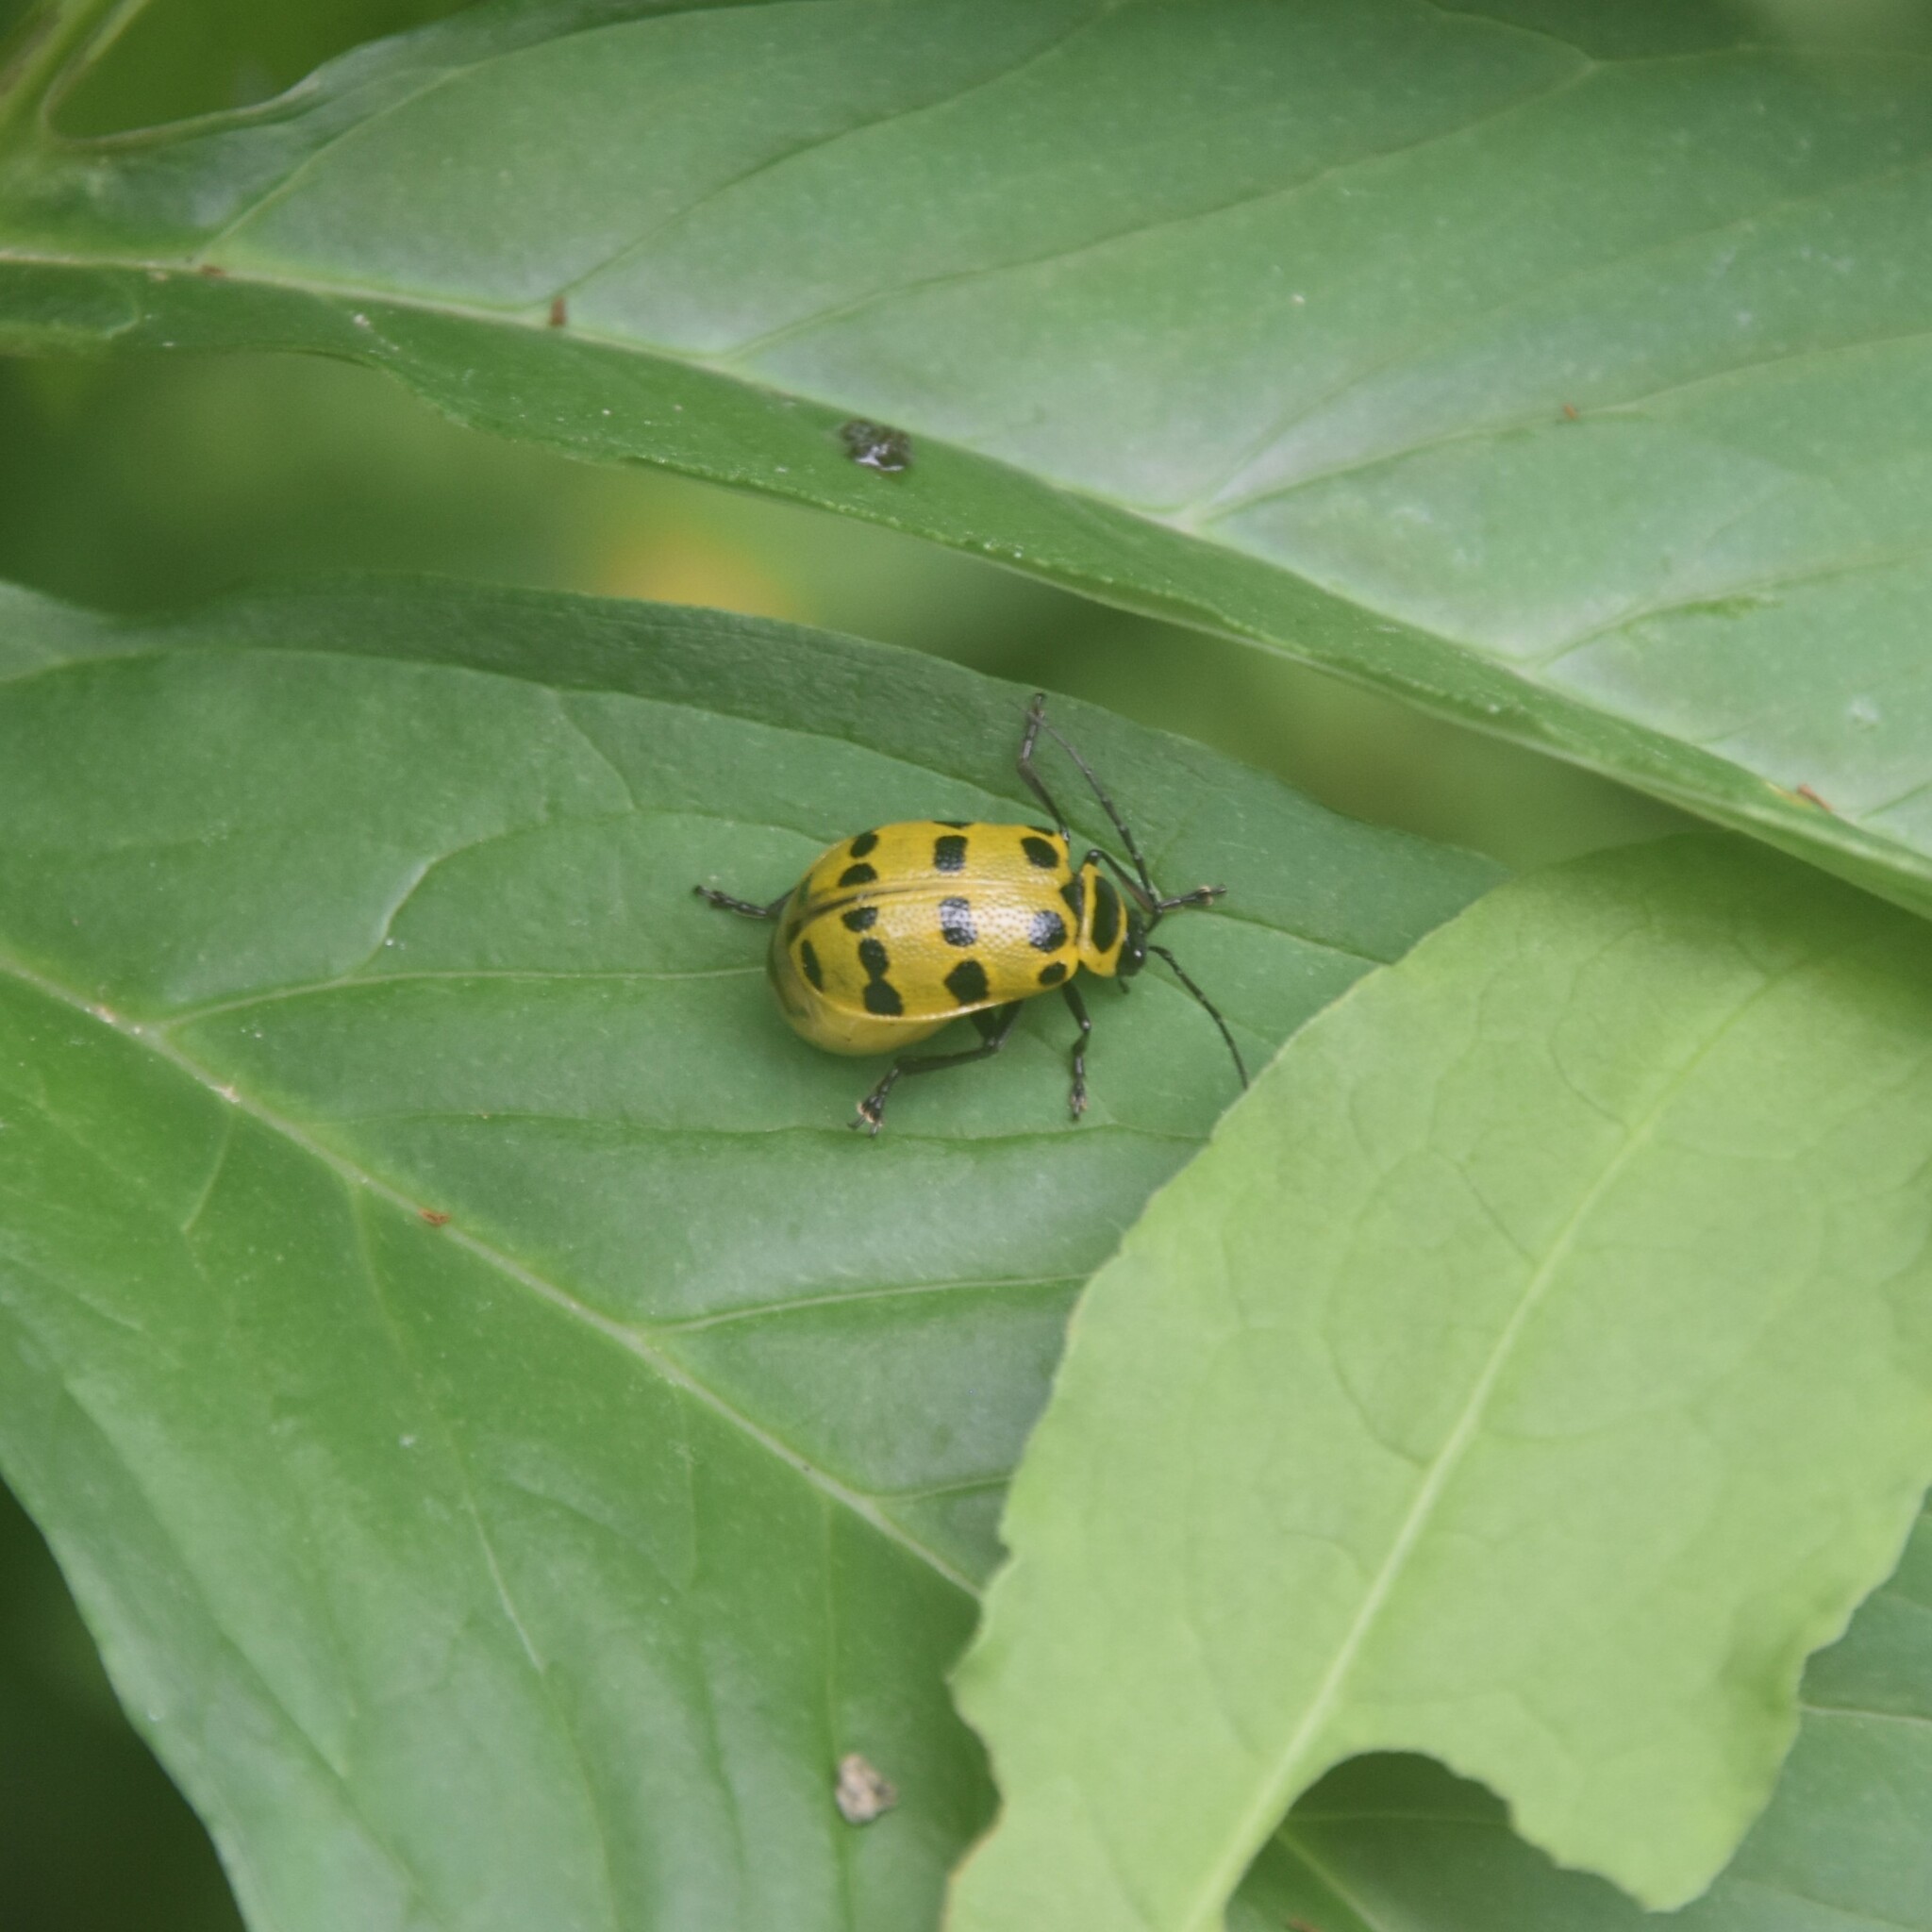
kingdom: Animalia
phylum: Arthropoda
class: Insecta
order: Coleoptera
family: Chrysomelidae
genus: Meristata
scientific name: Meristata quadrifasciata
